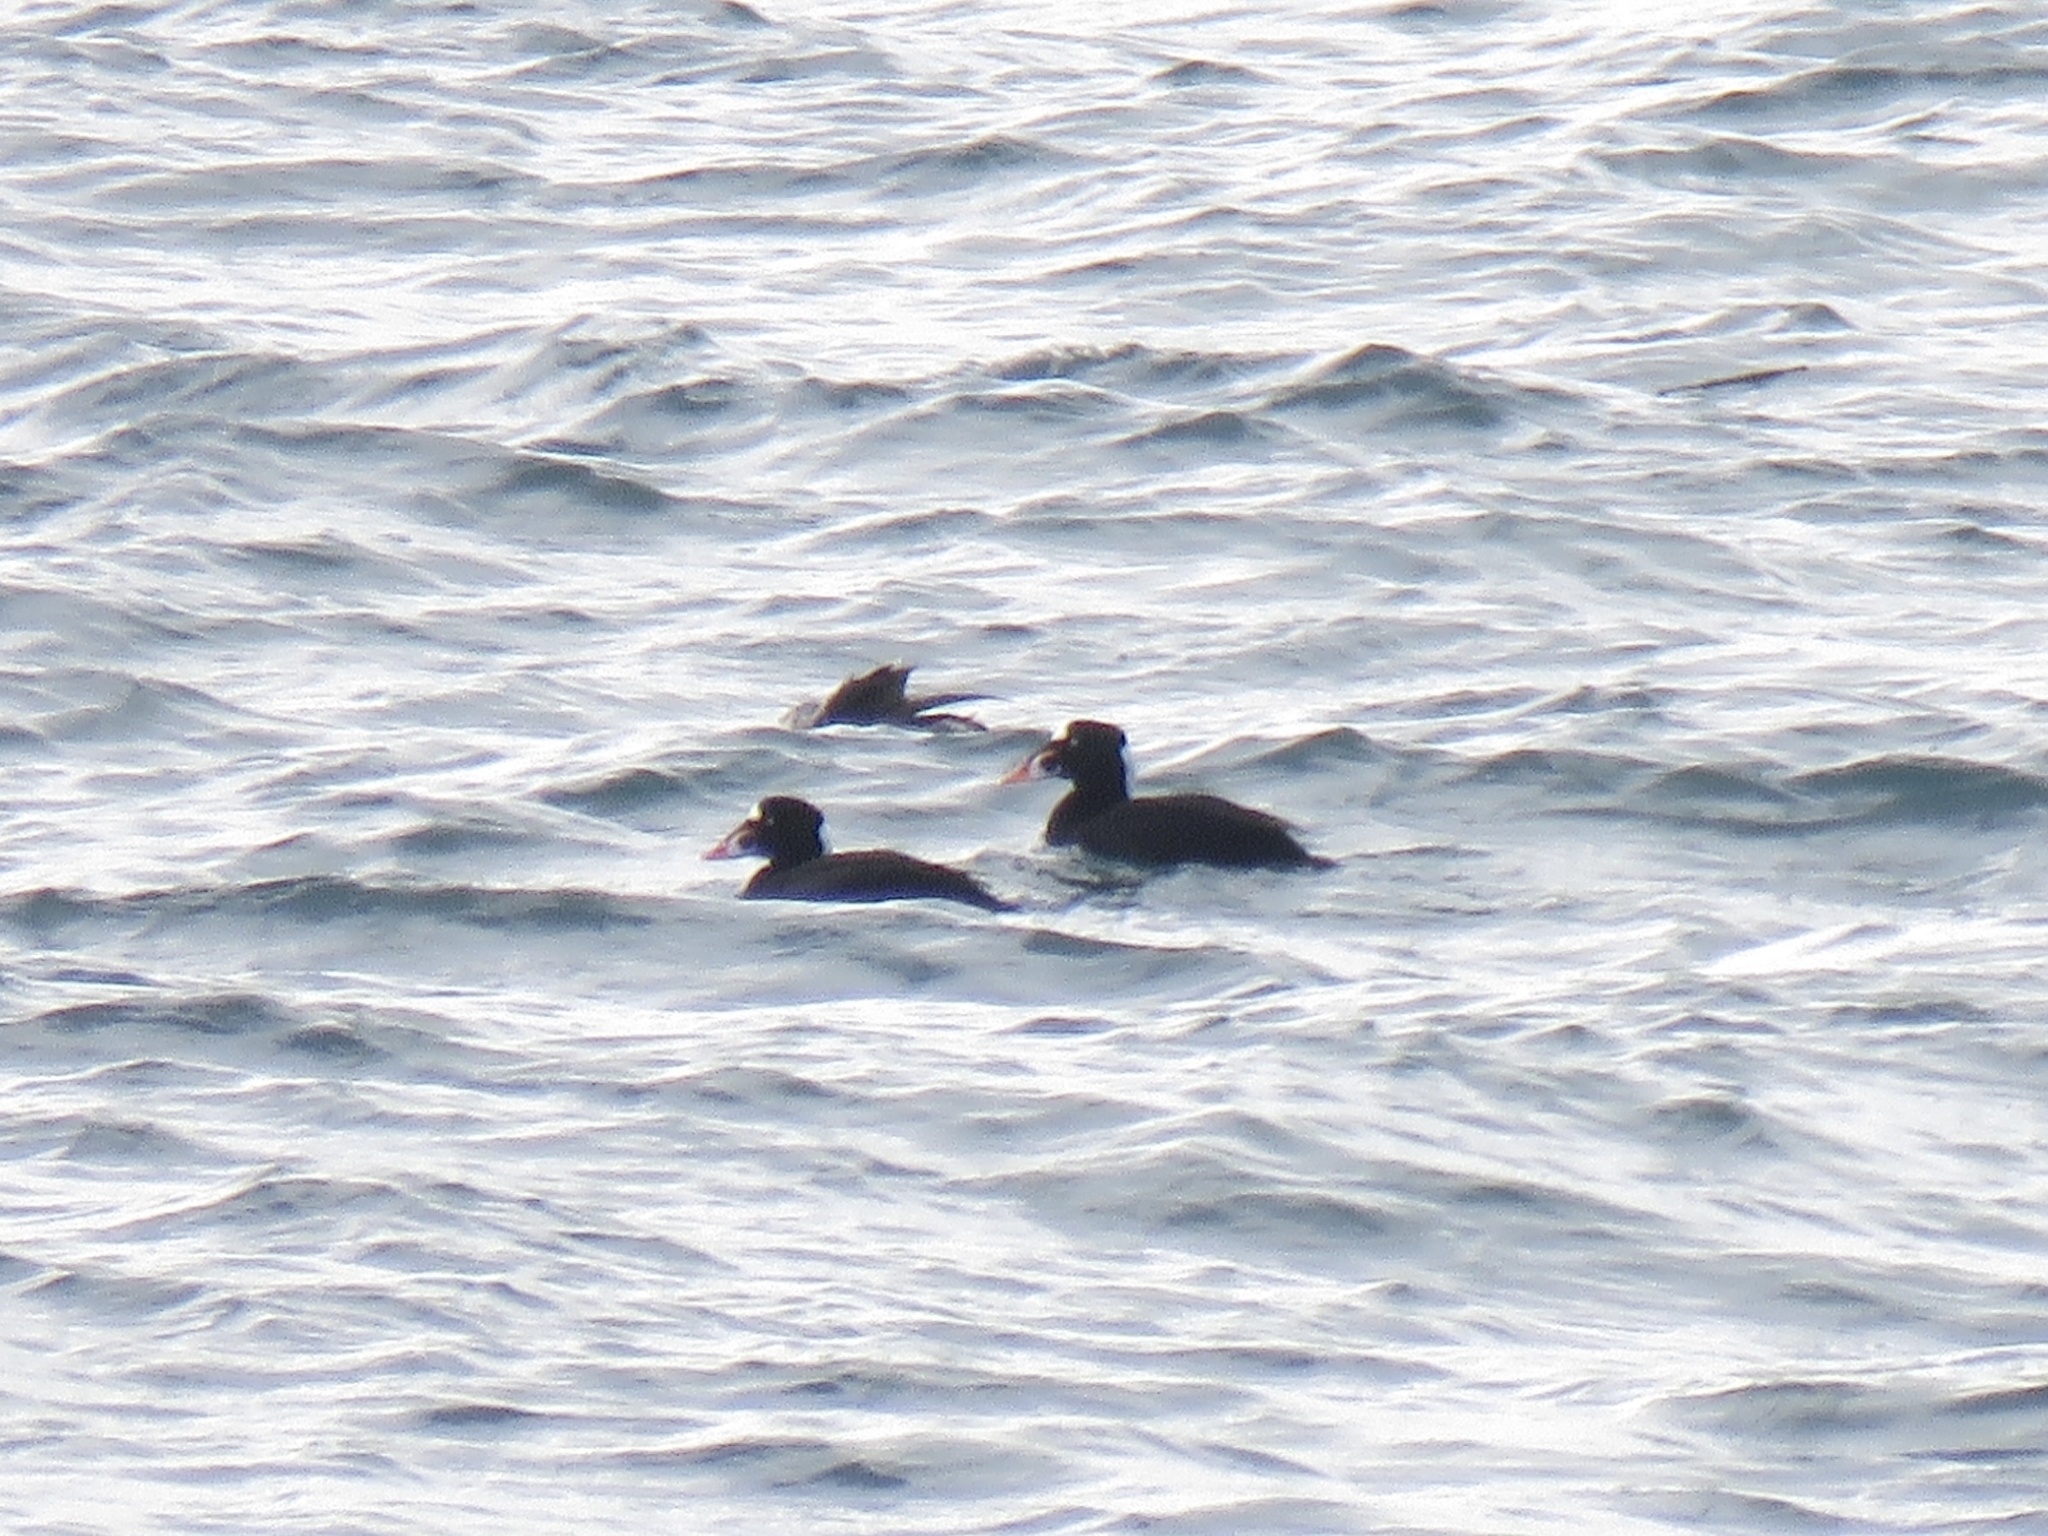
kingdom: Animalia
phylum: Chordata
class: Aves
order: Anseriformes
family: Anatidae
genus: Melanitta
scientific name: Melanitta perspicillata
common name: Surf scoter
